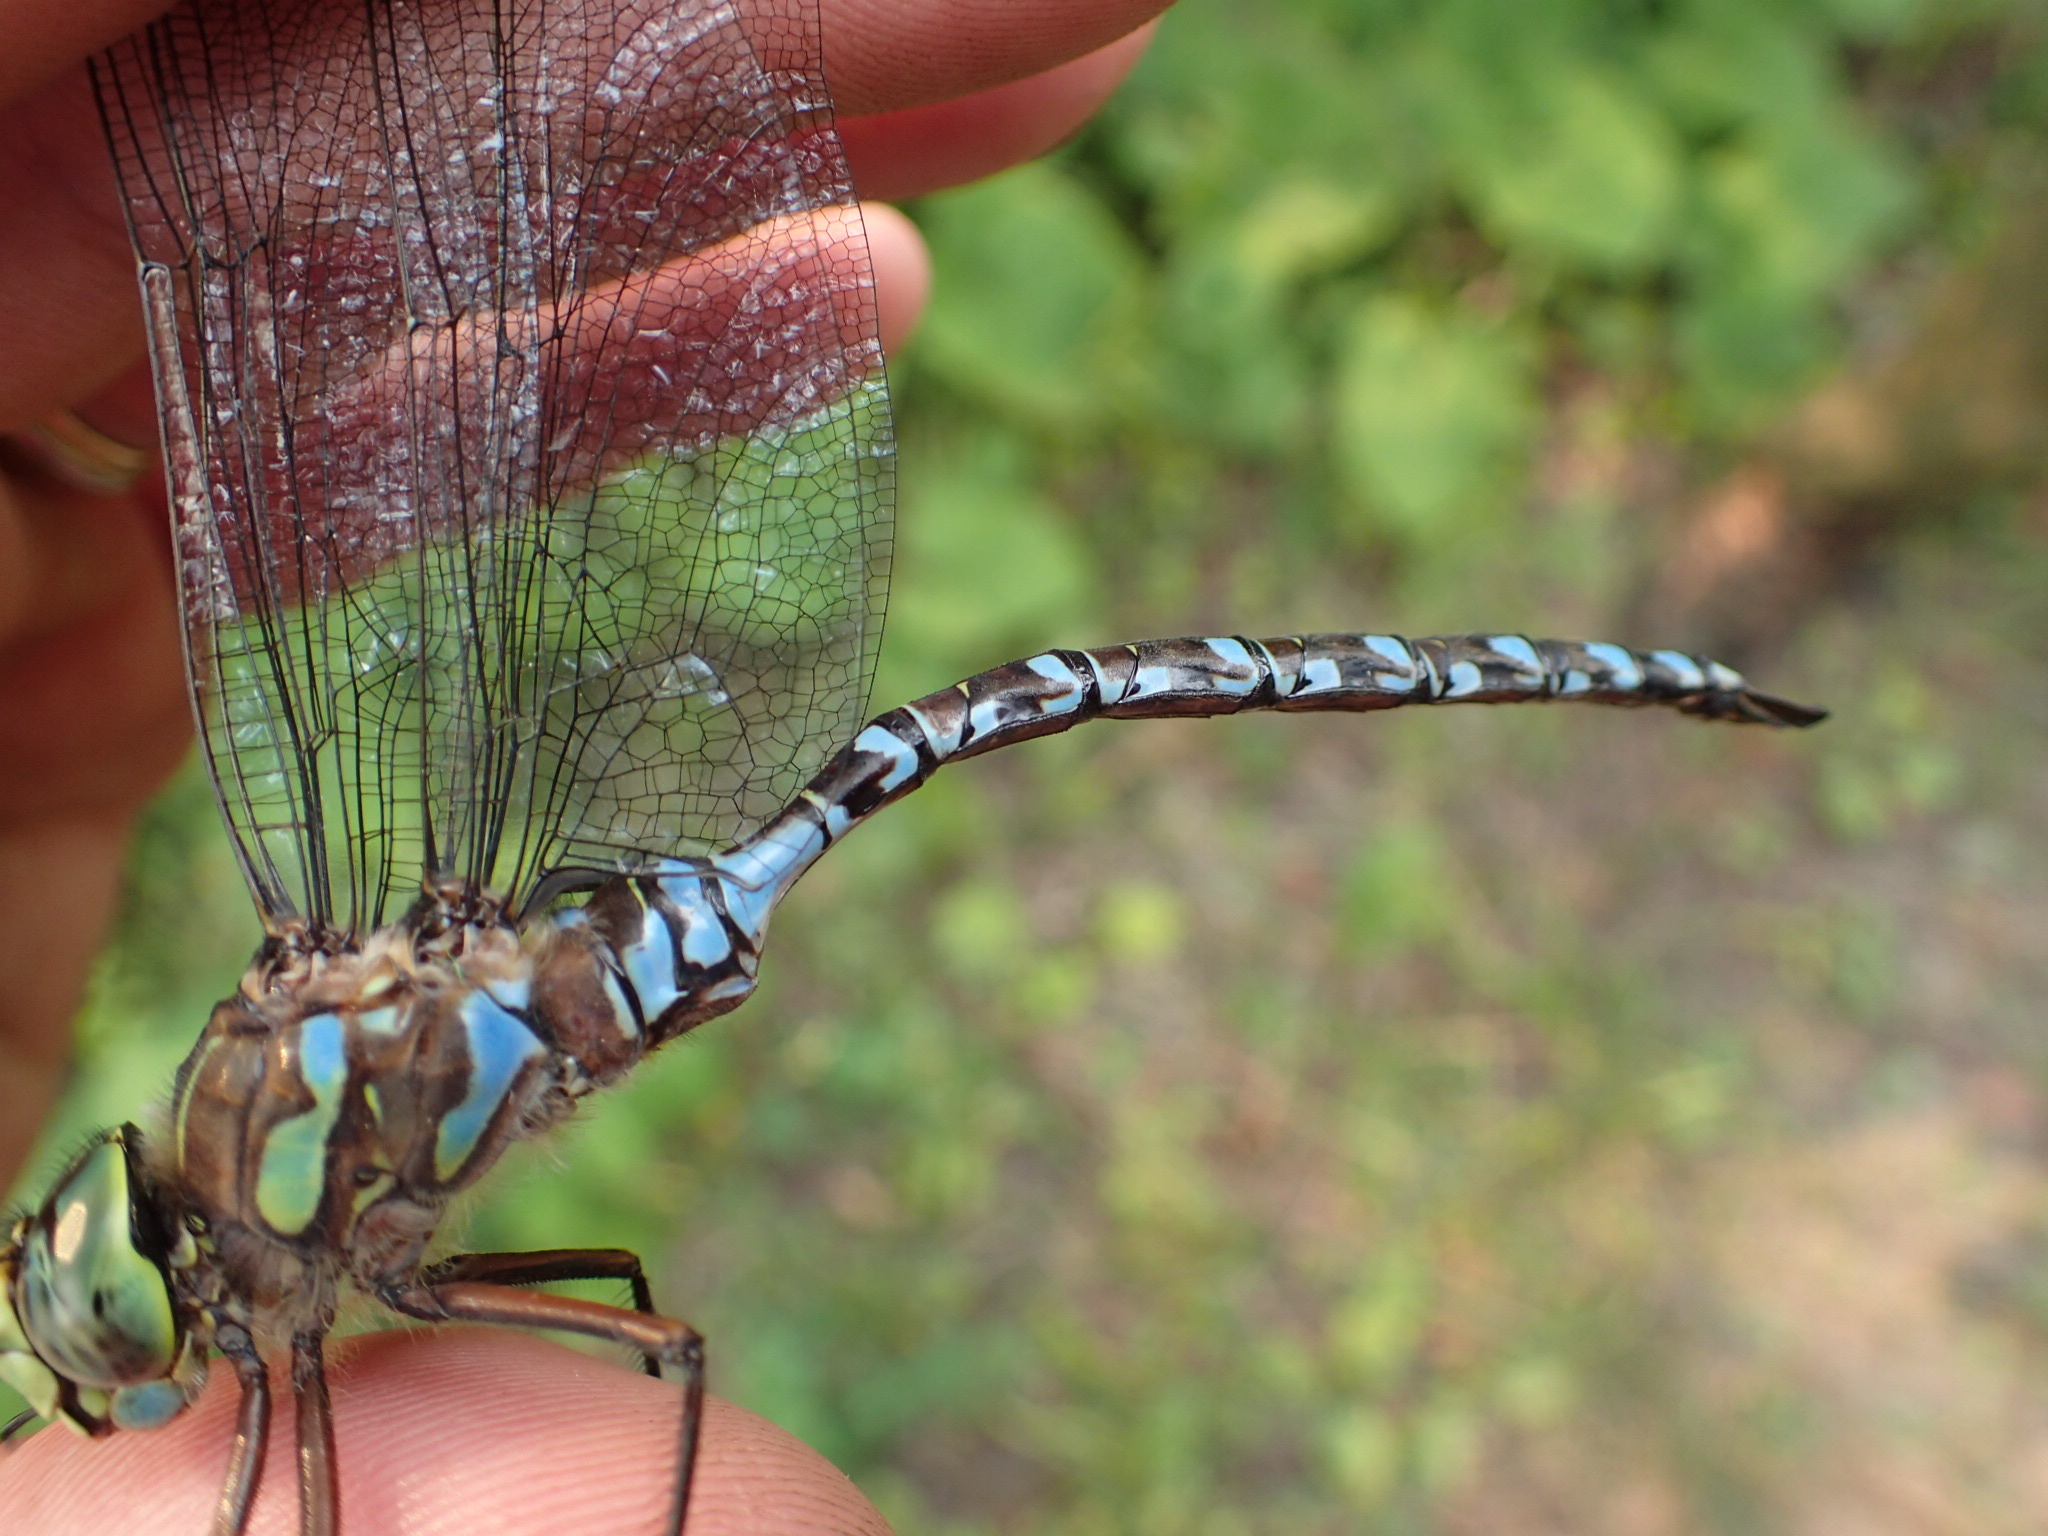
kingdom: Animalia
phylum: Arthropoda
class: Insecta
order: Odonata
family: Aeshnidae
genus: Aeshna
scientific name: Aeshna eremita
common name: Lake darner
